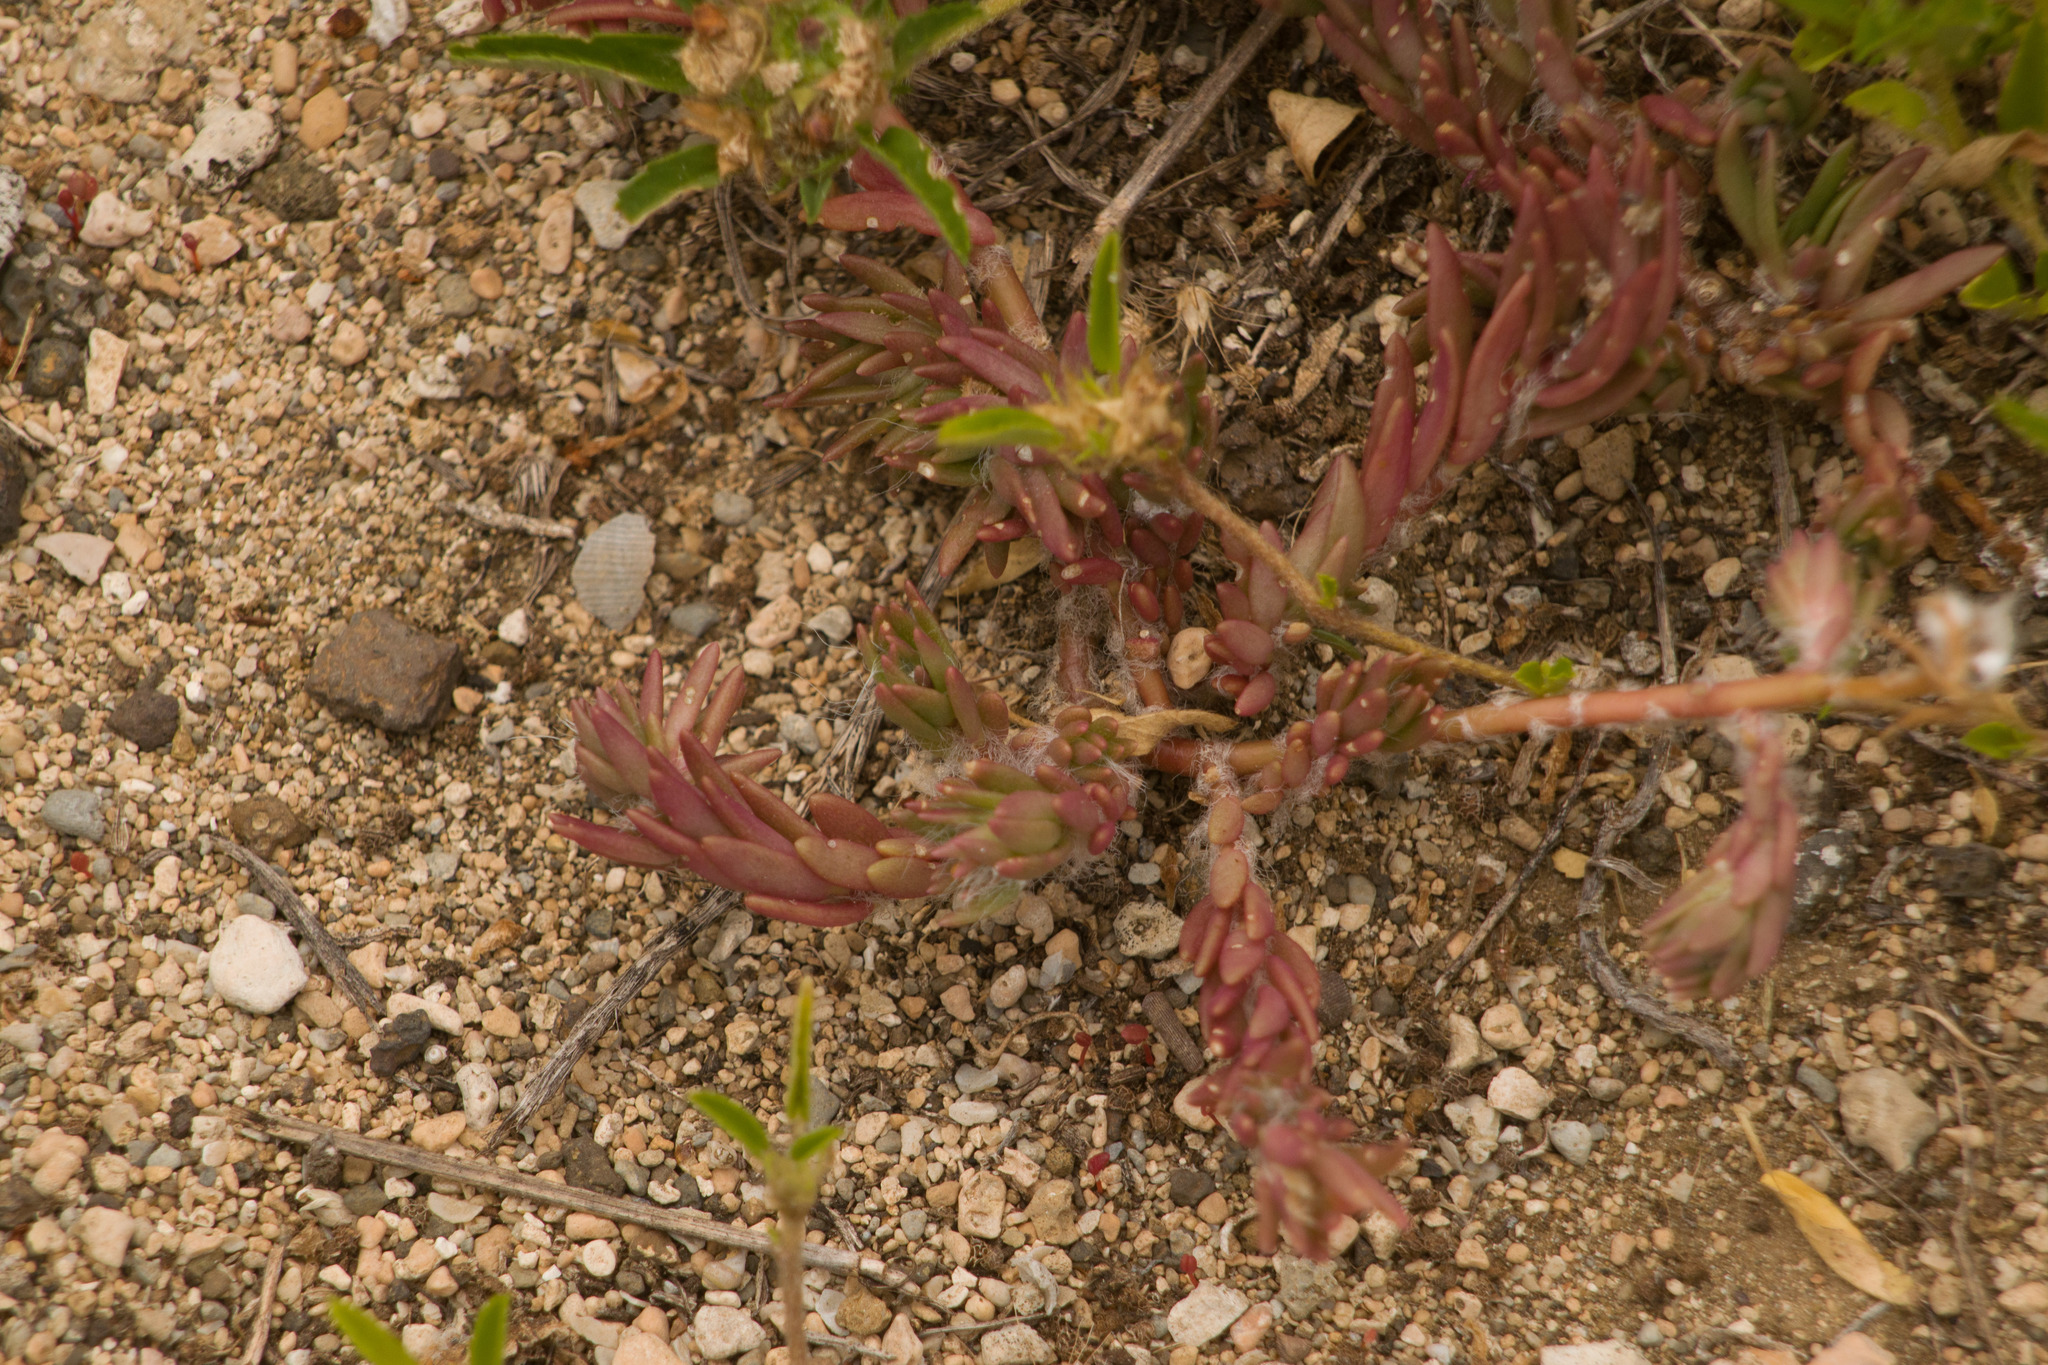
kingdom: Plantae
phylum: Tracheophyta
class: Magnoliopsida
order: Caryophyllales
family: Portulacaceae
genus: Portulaca
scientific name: Portulaca pilosa
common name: Kiss me quick
